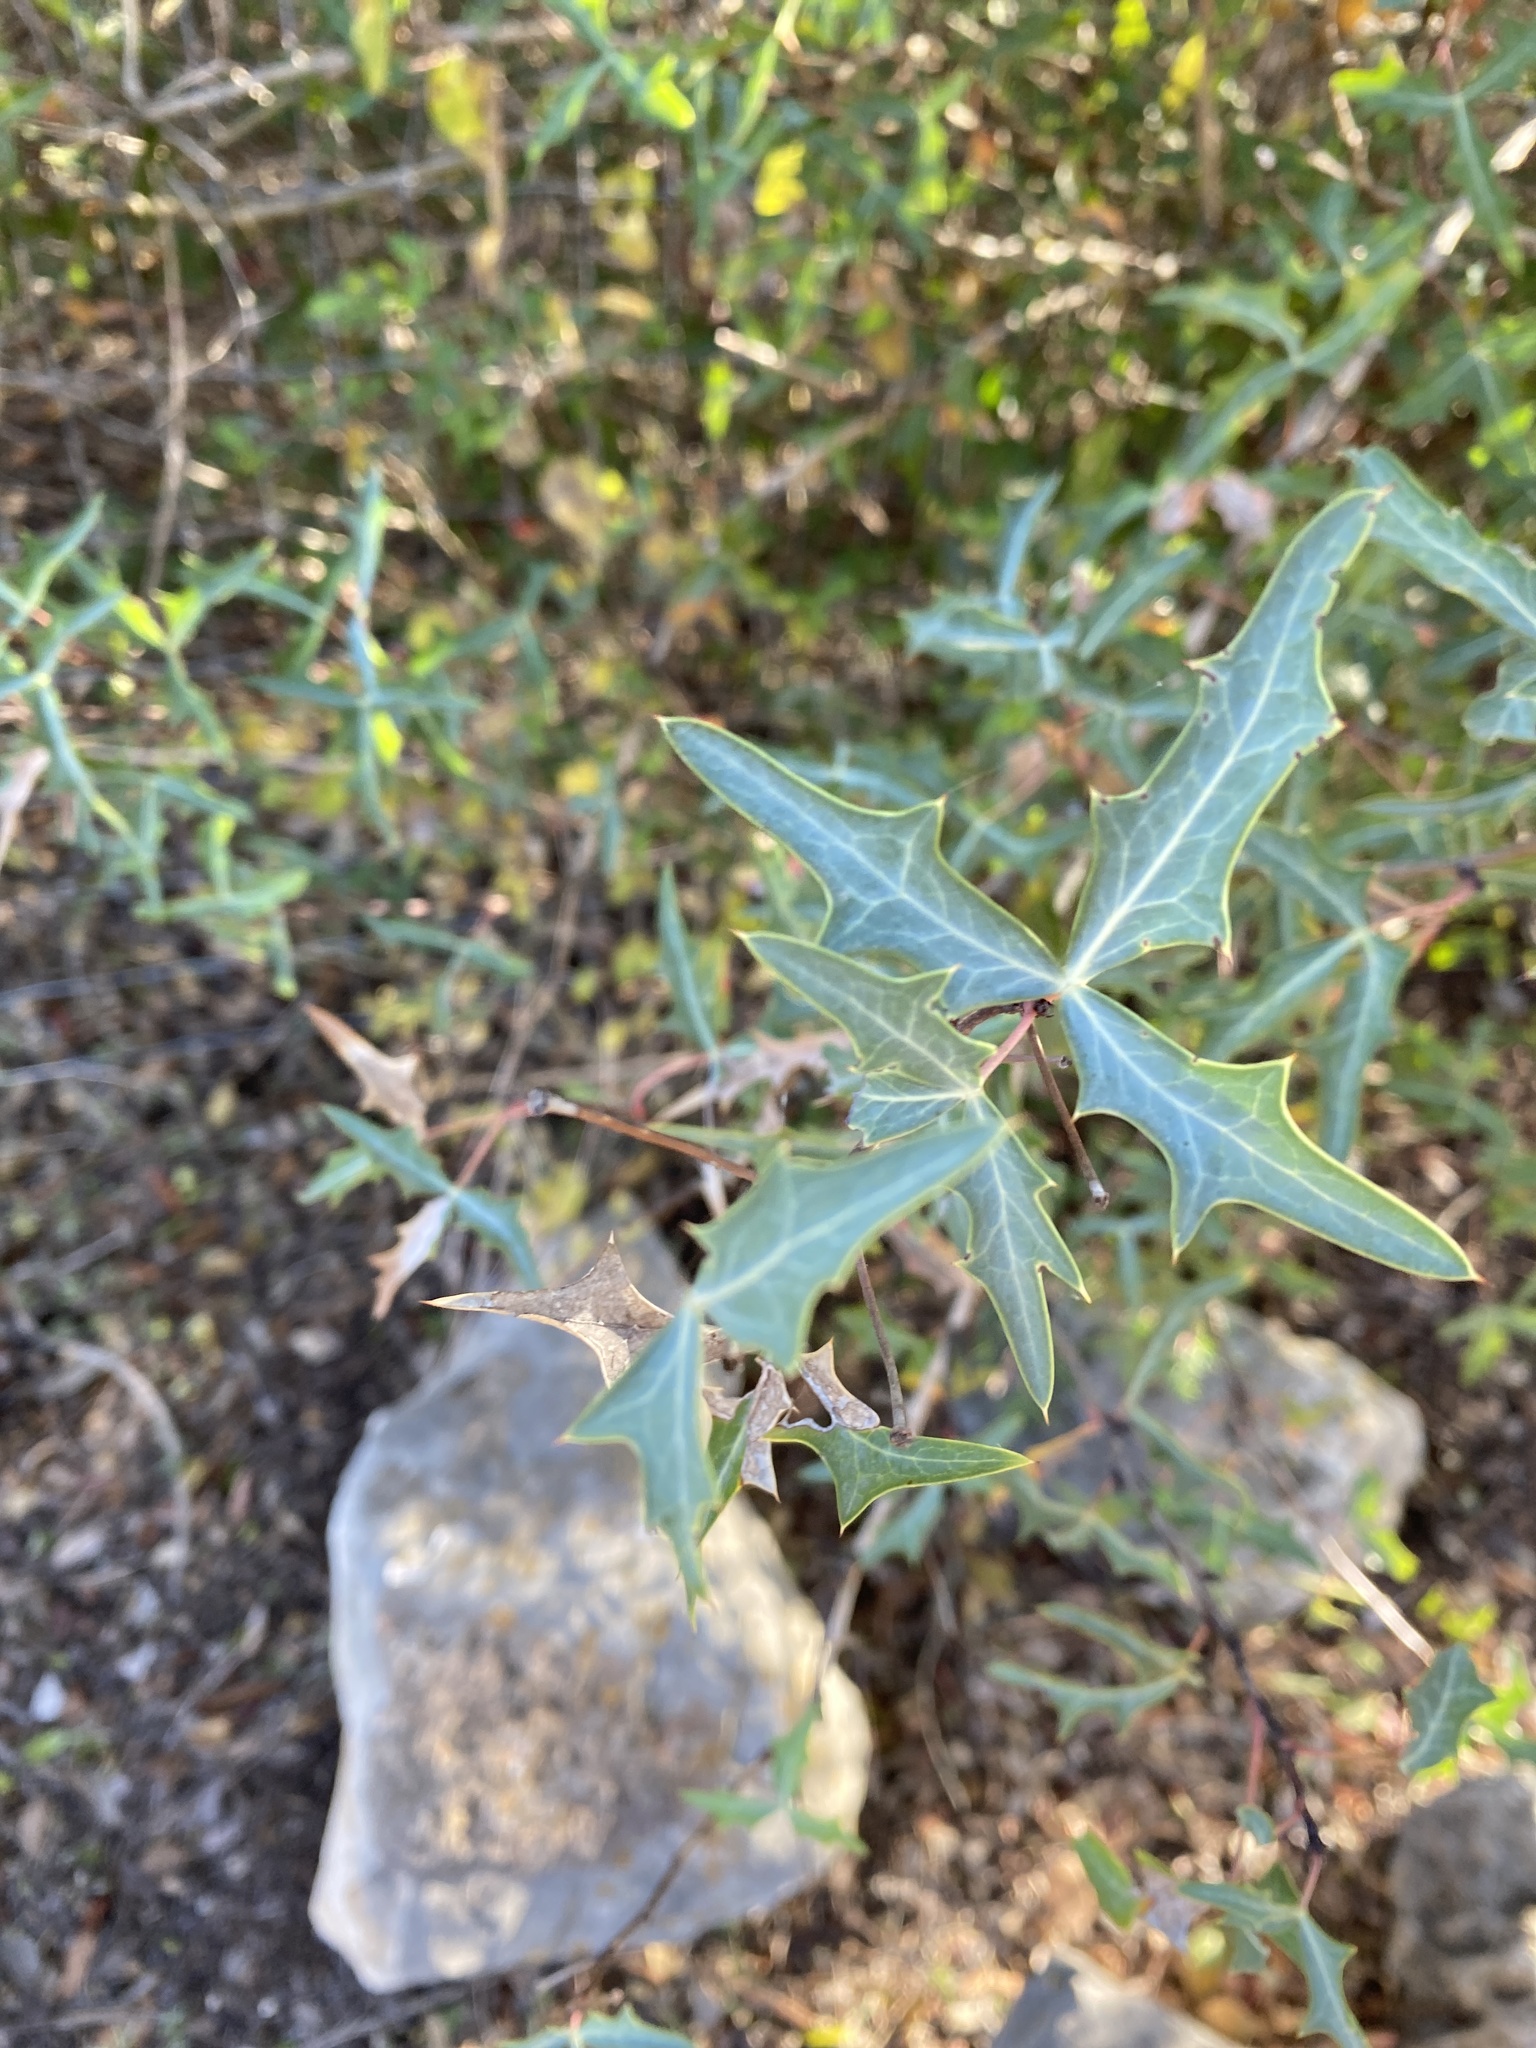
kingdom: Plantae
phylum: Tracheophyta
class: Magnoliopsida
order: Ranunculales
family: Berberidaceae
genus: Alloberberis
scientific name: Alloberberis trifoliolata
